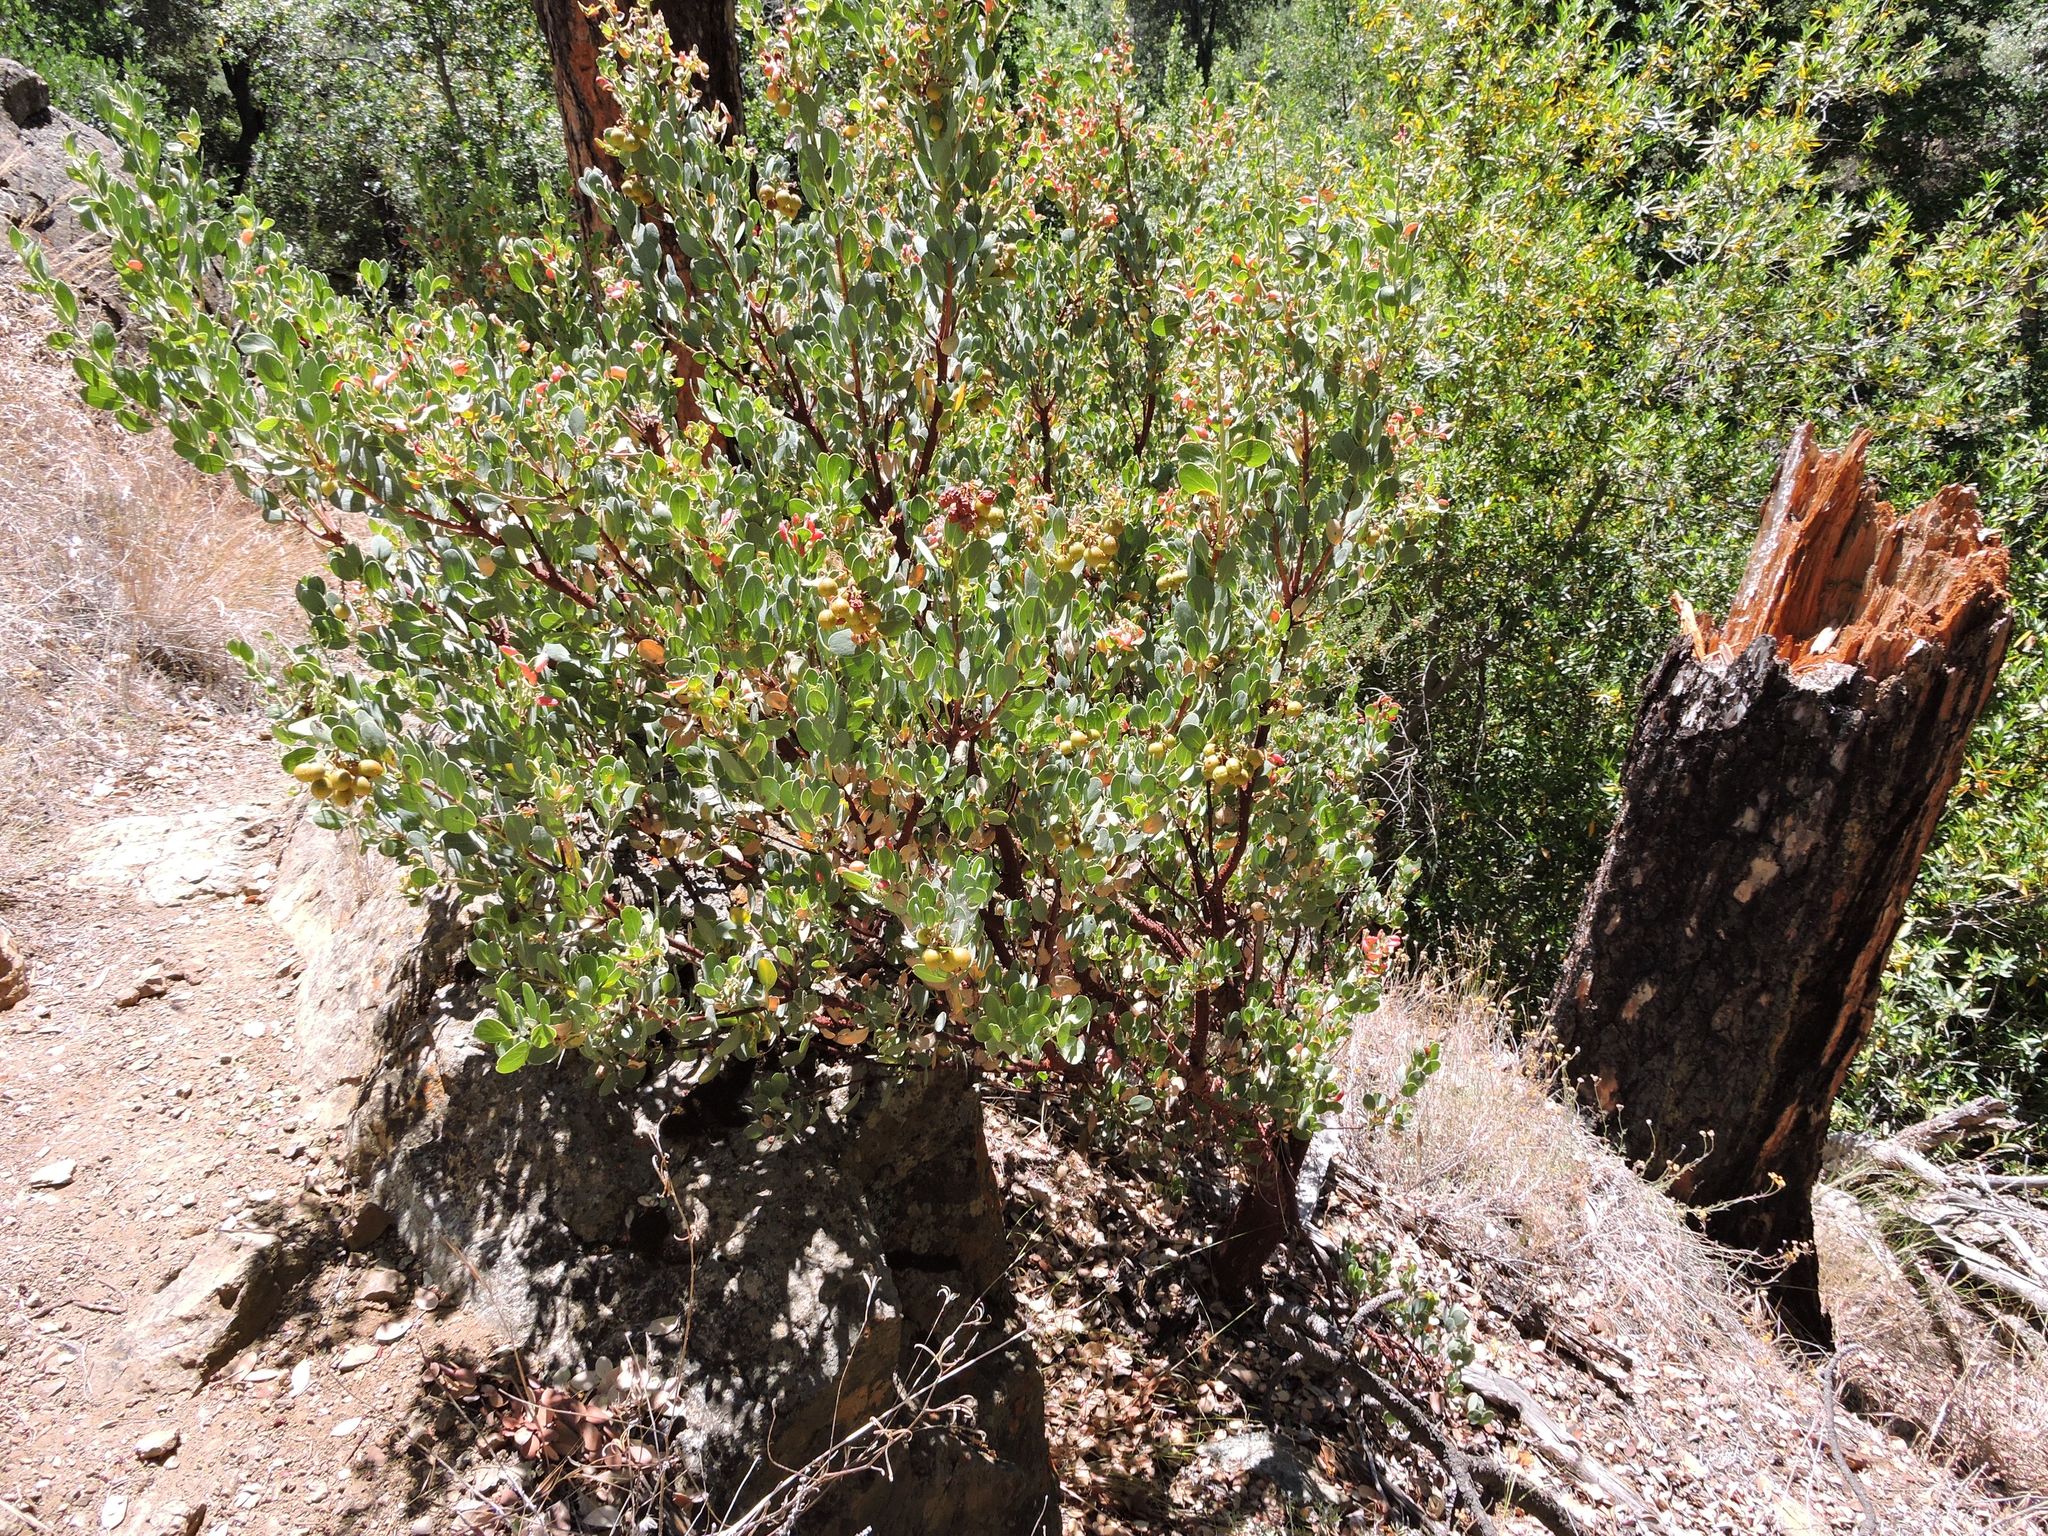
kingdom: Plantae
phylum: Tracheophyta
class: Magnoliopsida
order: Ericales
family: Ericaceae
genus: Arctostaphylos
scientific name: Arctostaphylos glauca
